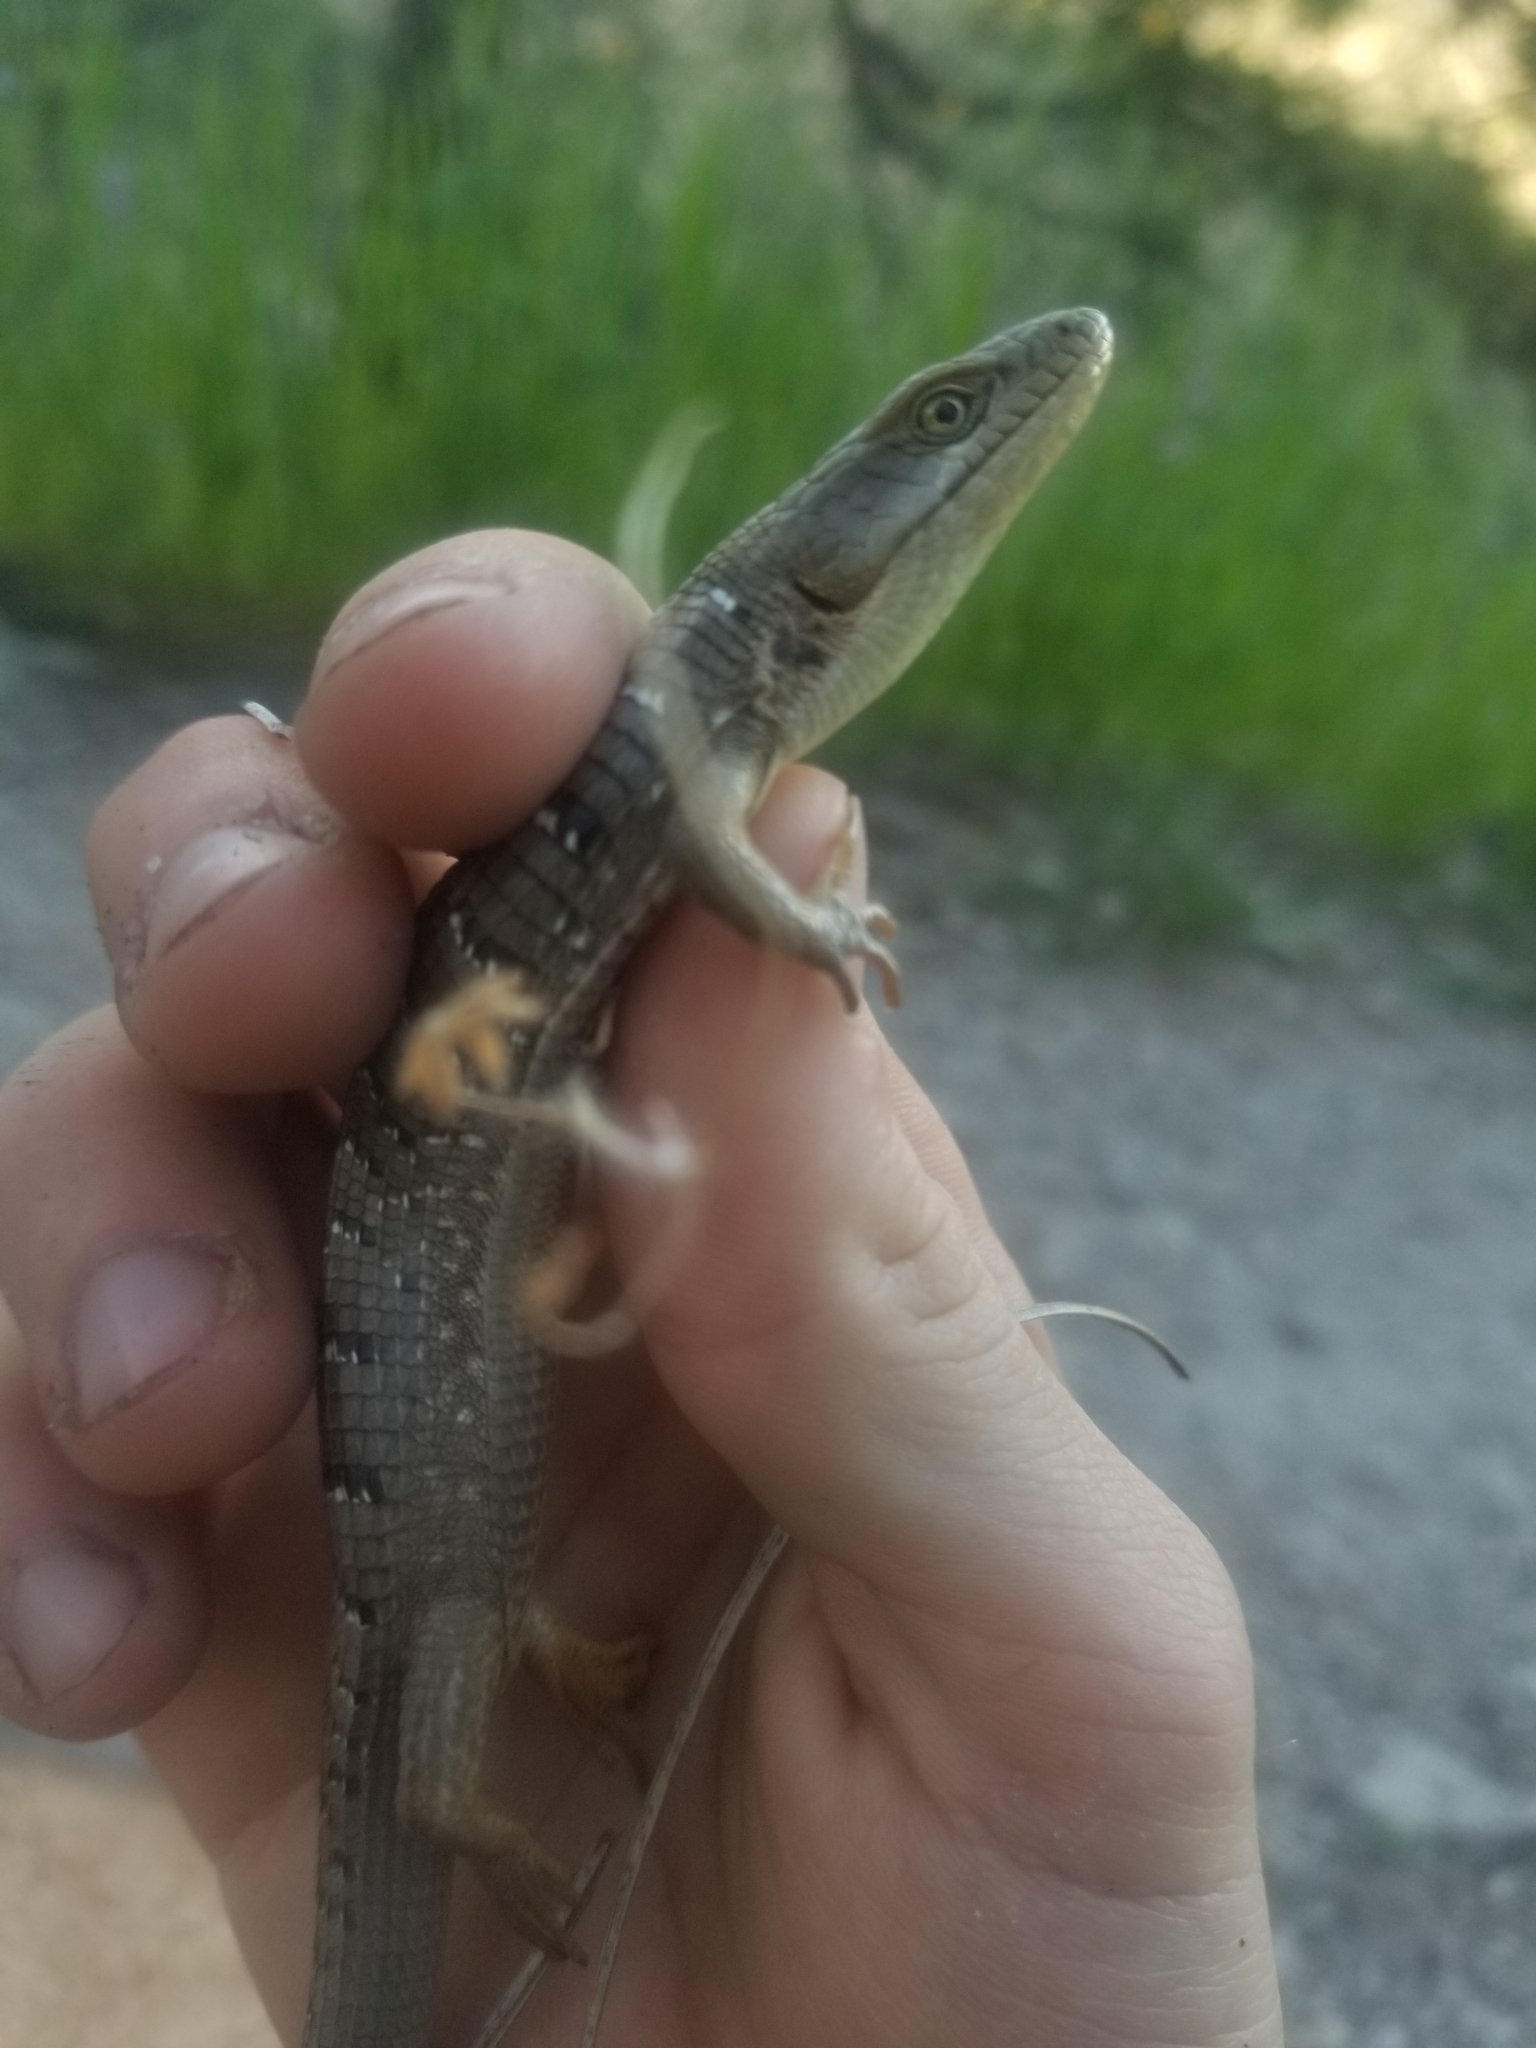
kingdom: Animalia
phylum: Chordata
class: Squamata
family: Anguidae
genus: Elgaria
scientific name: Elgaria multicarinata
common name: Southern alligator lizard
